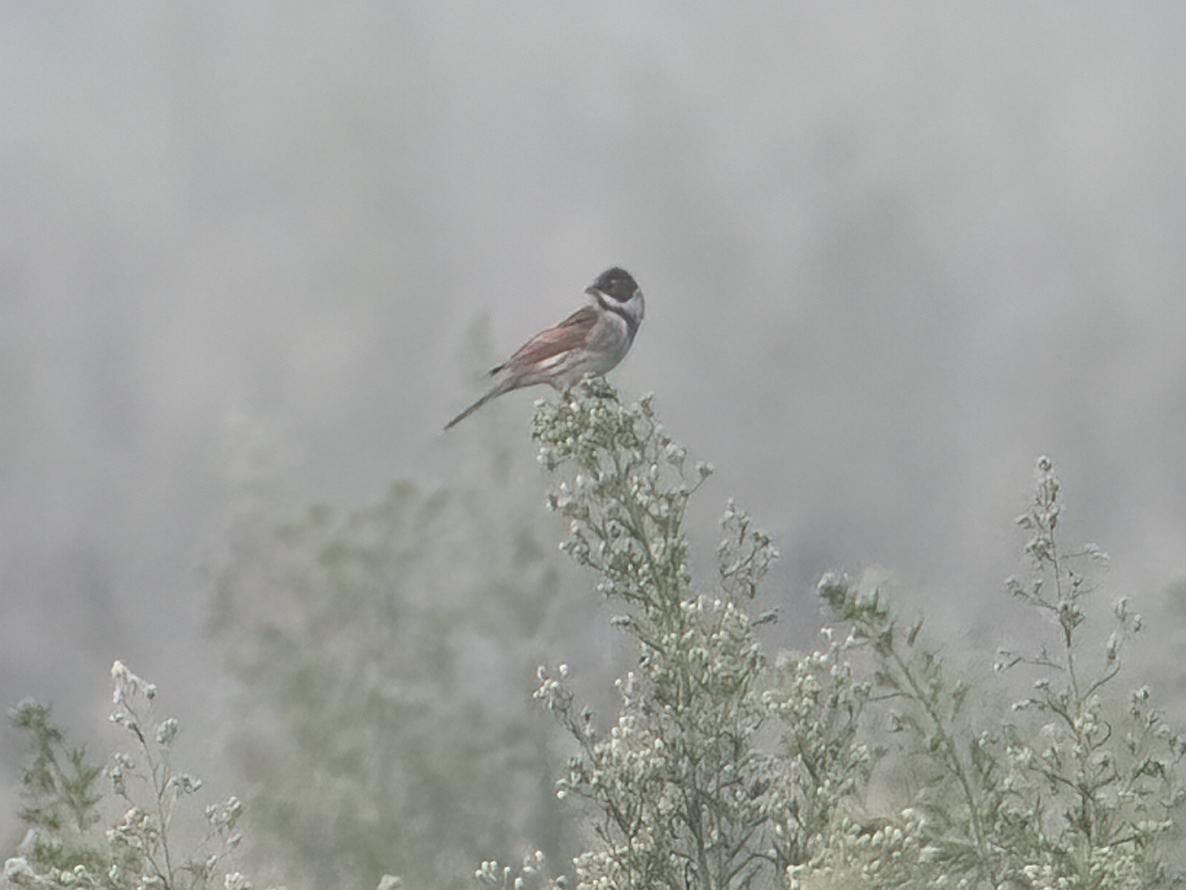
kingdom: Animalia
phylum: Chordata
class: Aves
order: Passeriformes
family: Emberizidae
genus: Emberiza
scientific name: Emberiza schoeniclus
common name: Reed bunting
